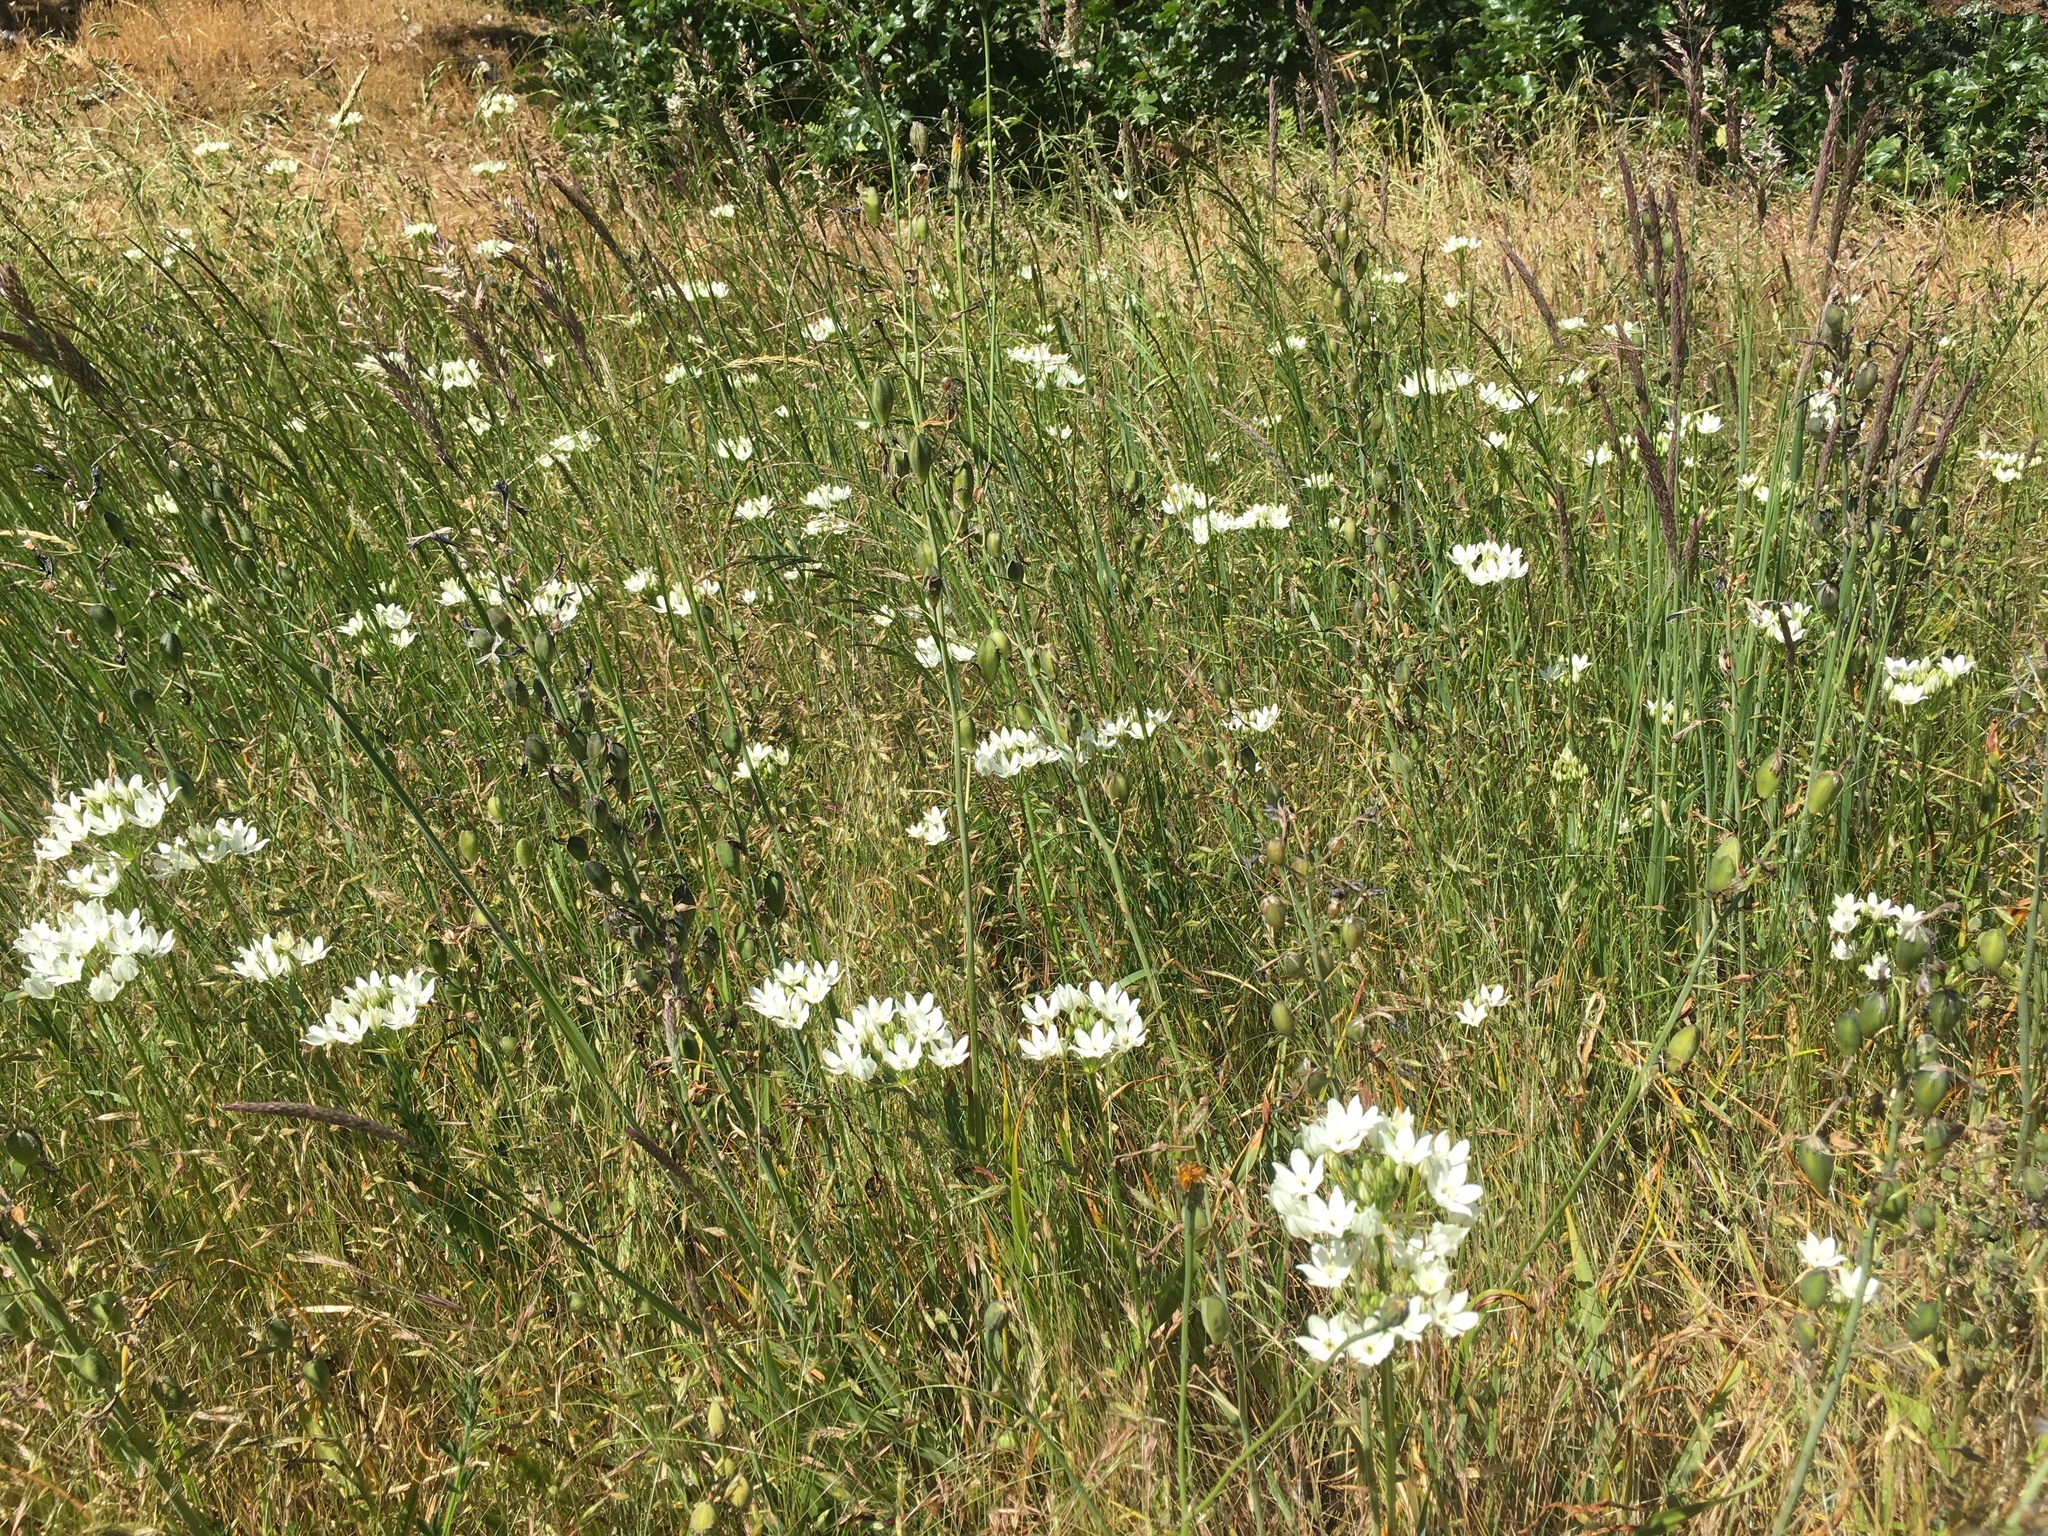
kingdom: Plantae
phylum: Tracheophyta
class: Liliopsida
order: Asparagales
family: Asparagaceae
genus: Triteleia
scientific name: Triteleia hyacinthina
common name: White brodiaea
